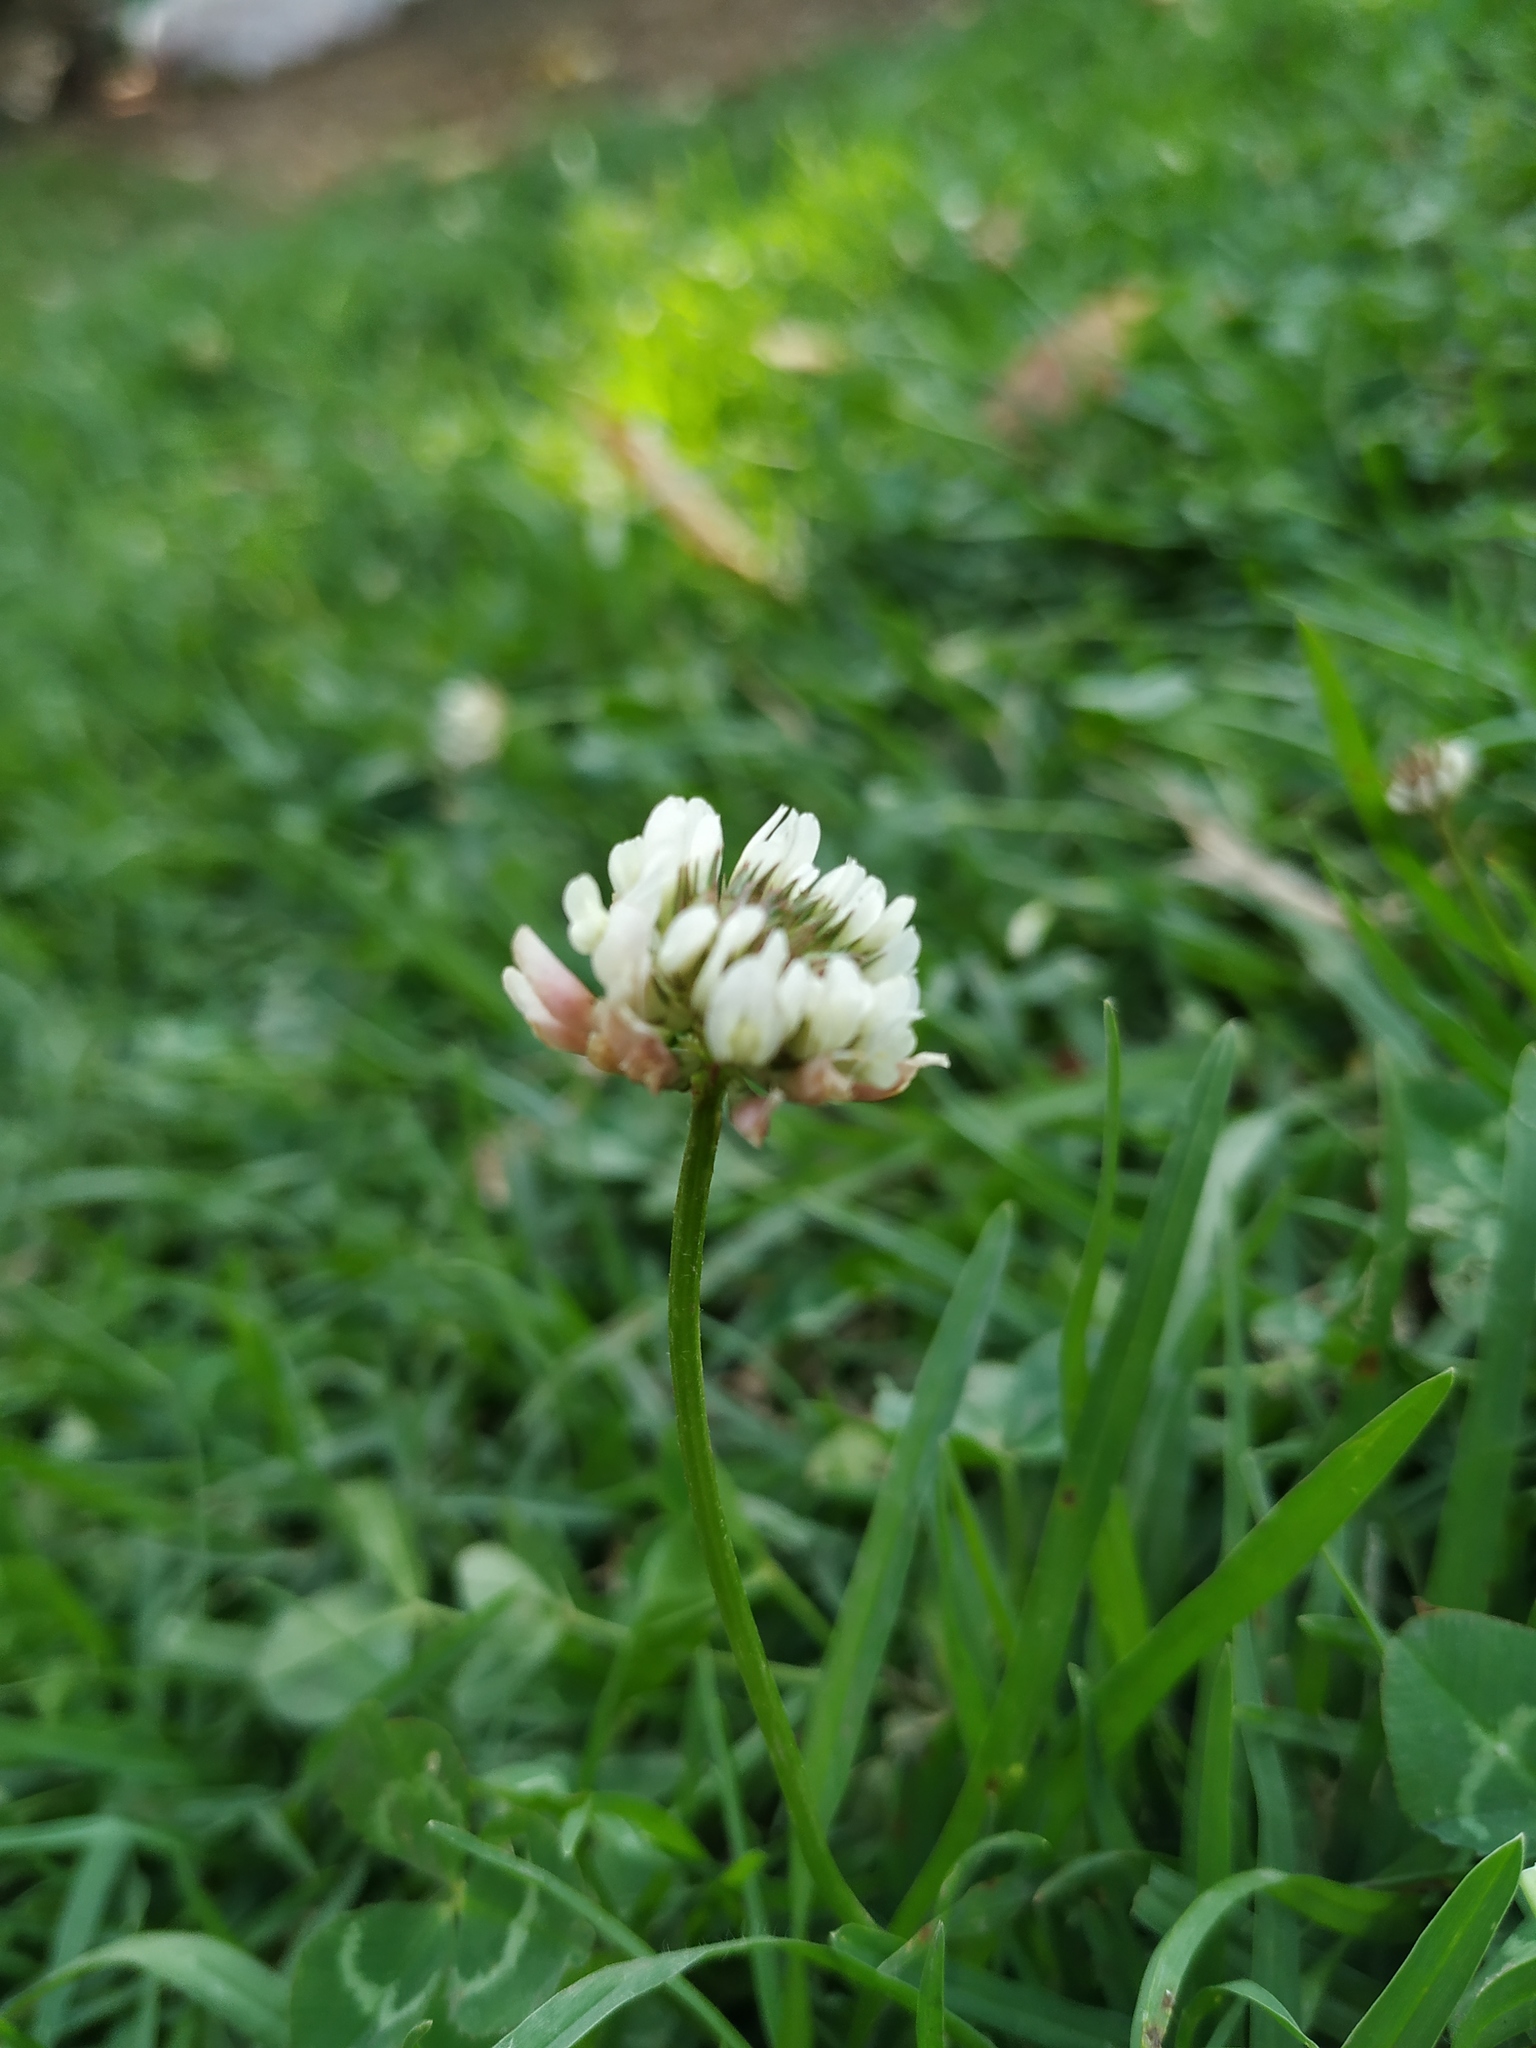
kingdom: Plantae
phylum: Tracheophyta
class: Magnoliopsida
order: Fabales
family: Fabaceae
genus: Trifolium
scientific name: Trifolium repens
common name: White clover
